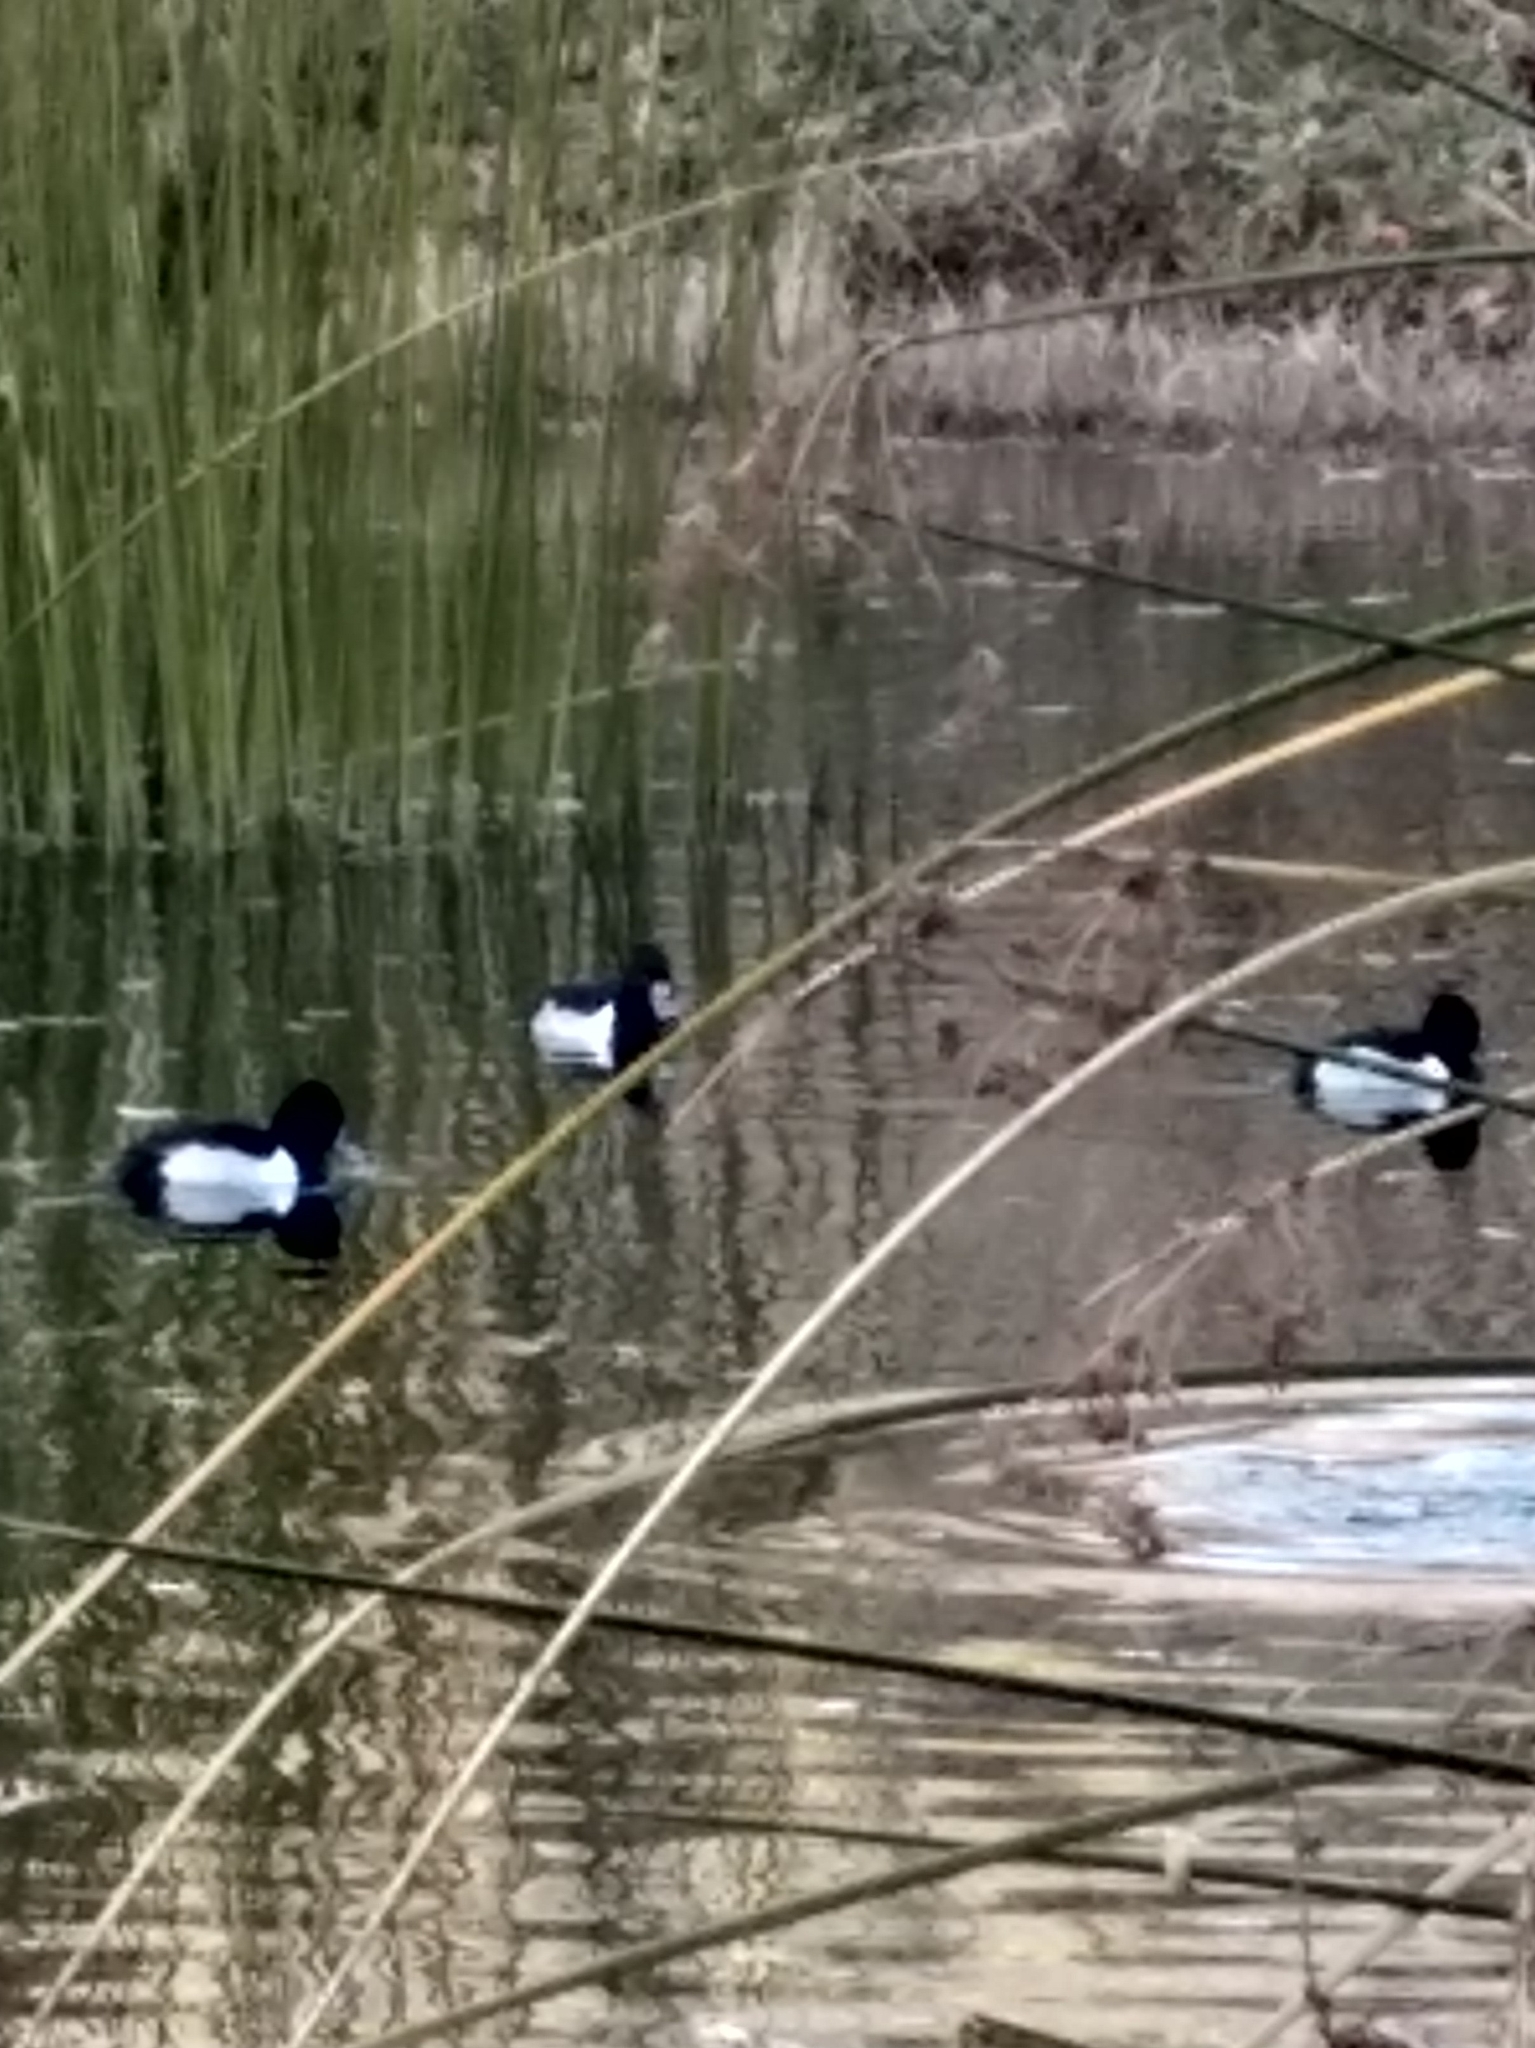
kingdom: Animalia
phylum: Chordata
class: Aves
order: Anseriformes
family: Anatidae
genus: Aythya
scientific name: Aythya collaris
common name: Ring-necked duck
